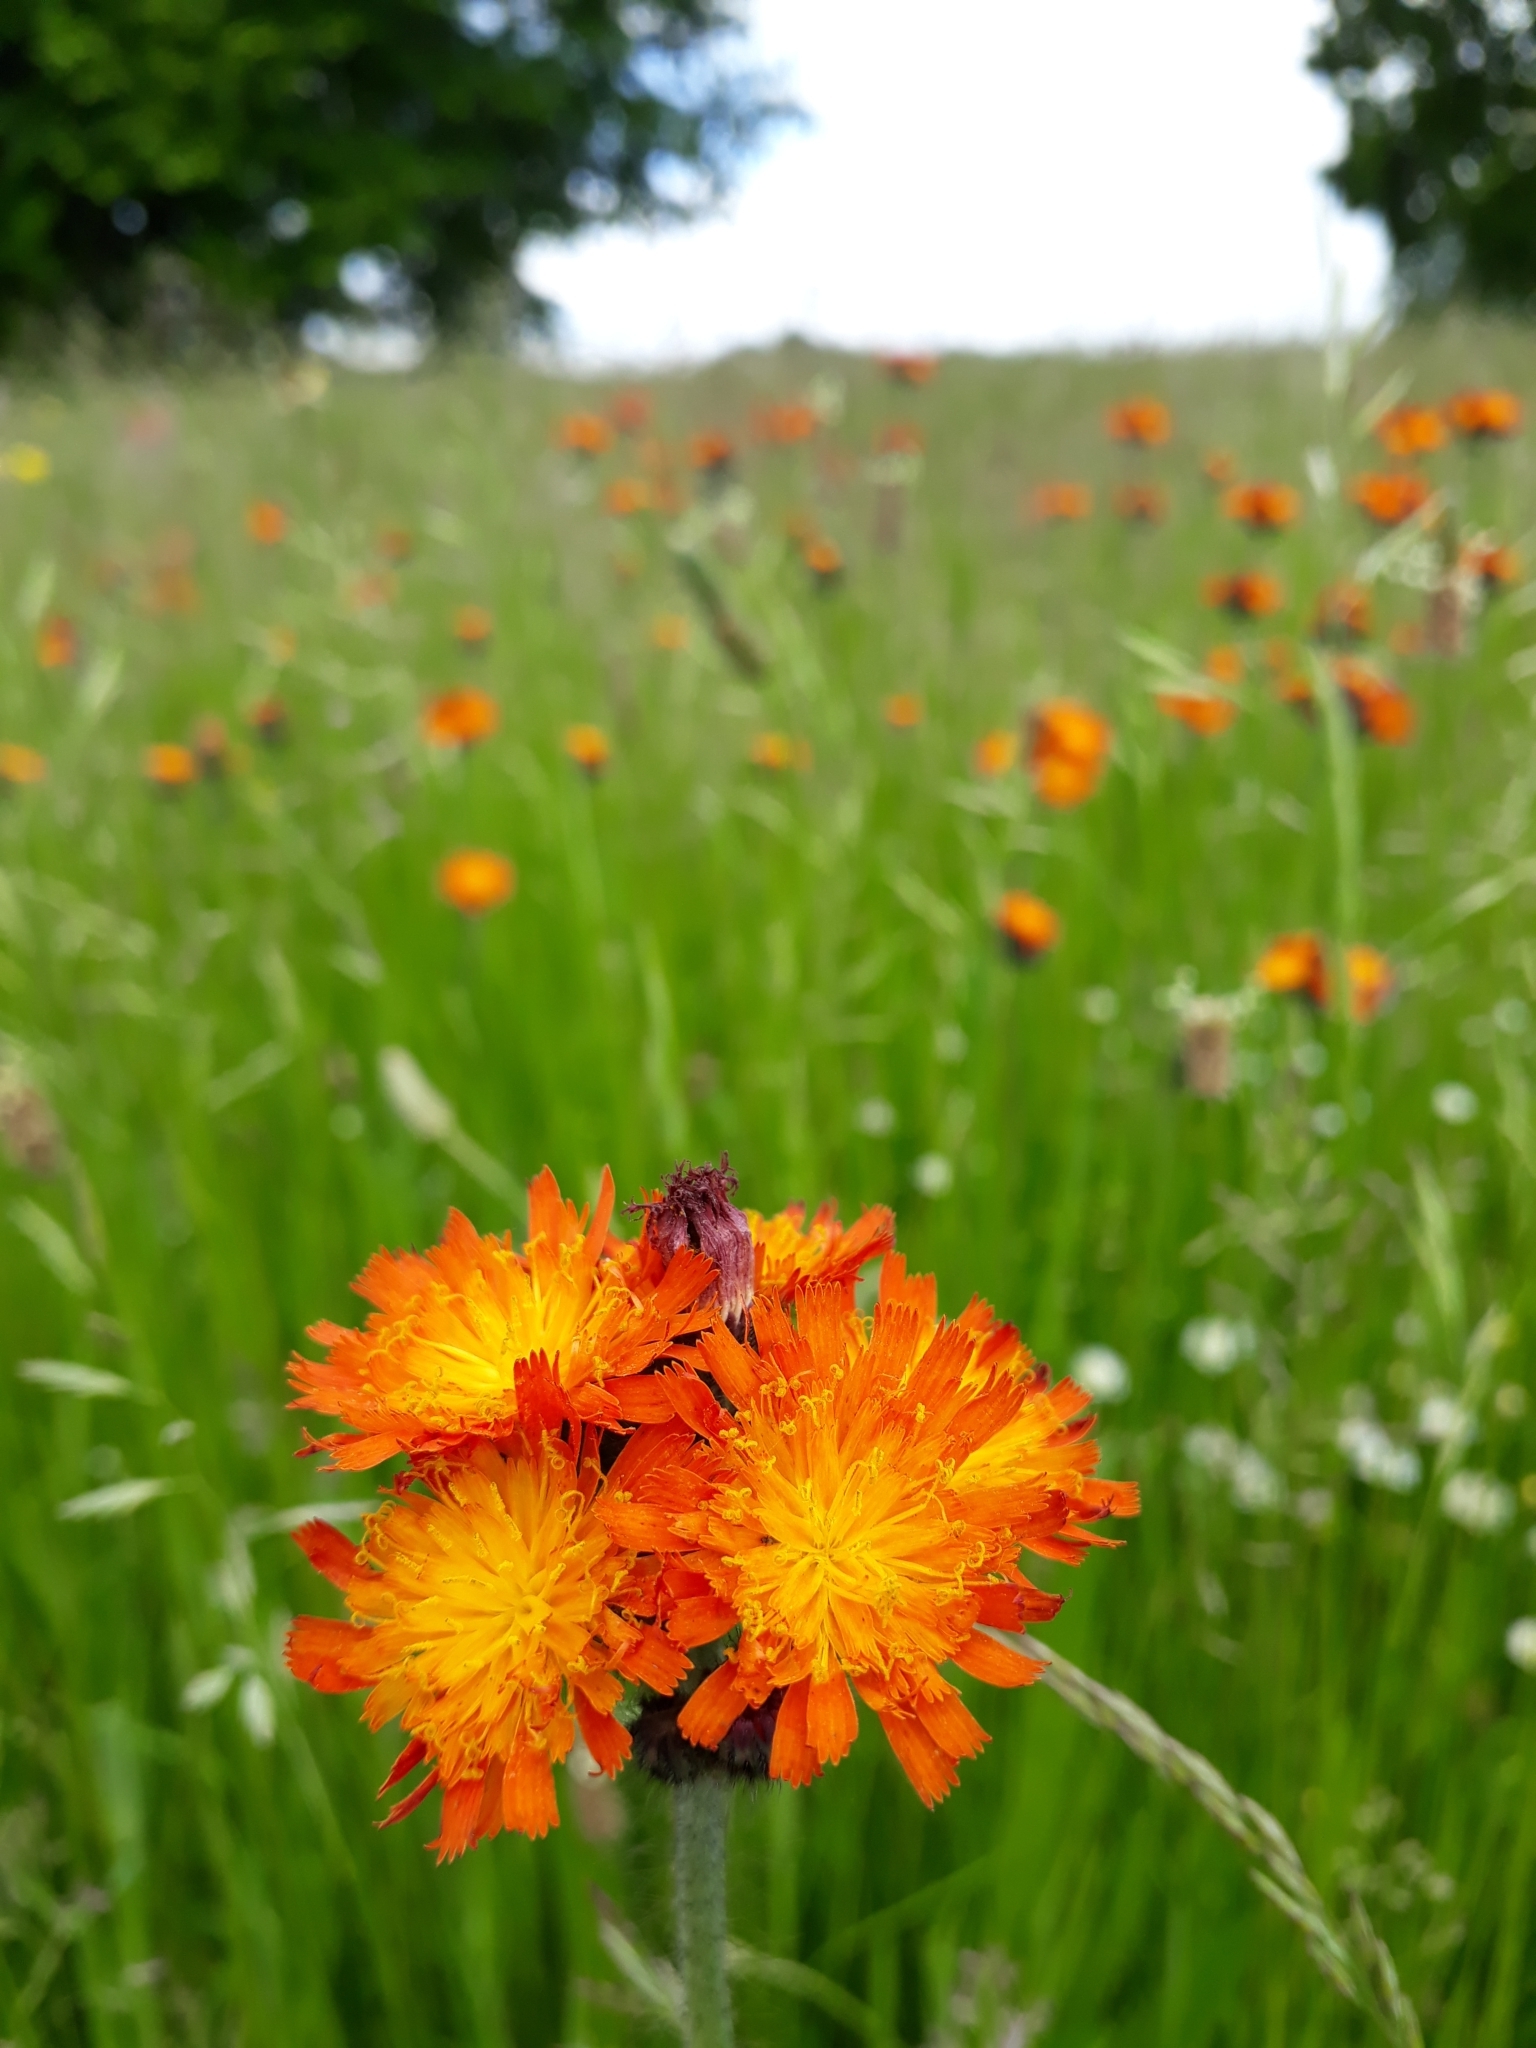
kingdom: Plantae
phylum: Tracheophyta
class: Magnoliopsida
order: Asterales
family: Asteraceae
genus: Pilosella
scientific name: Pilosella aurantiaca
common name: Fox-and-cubs
